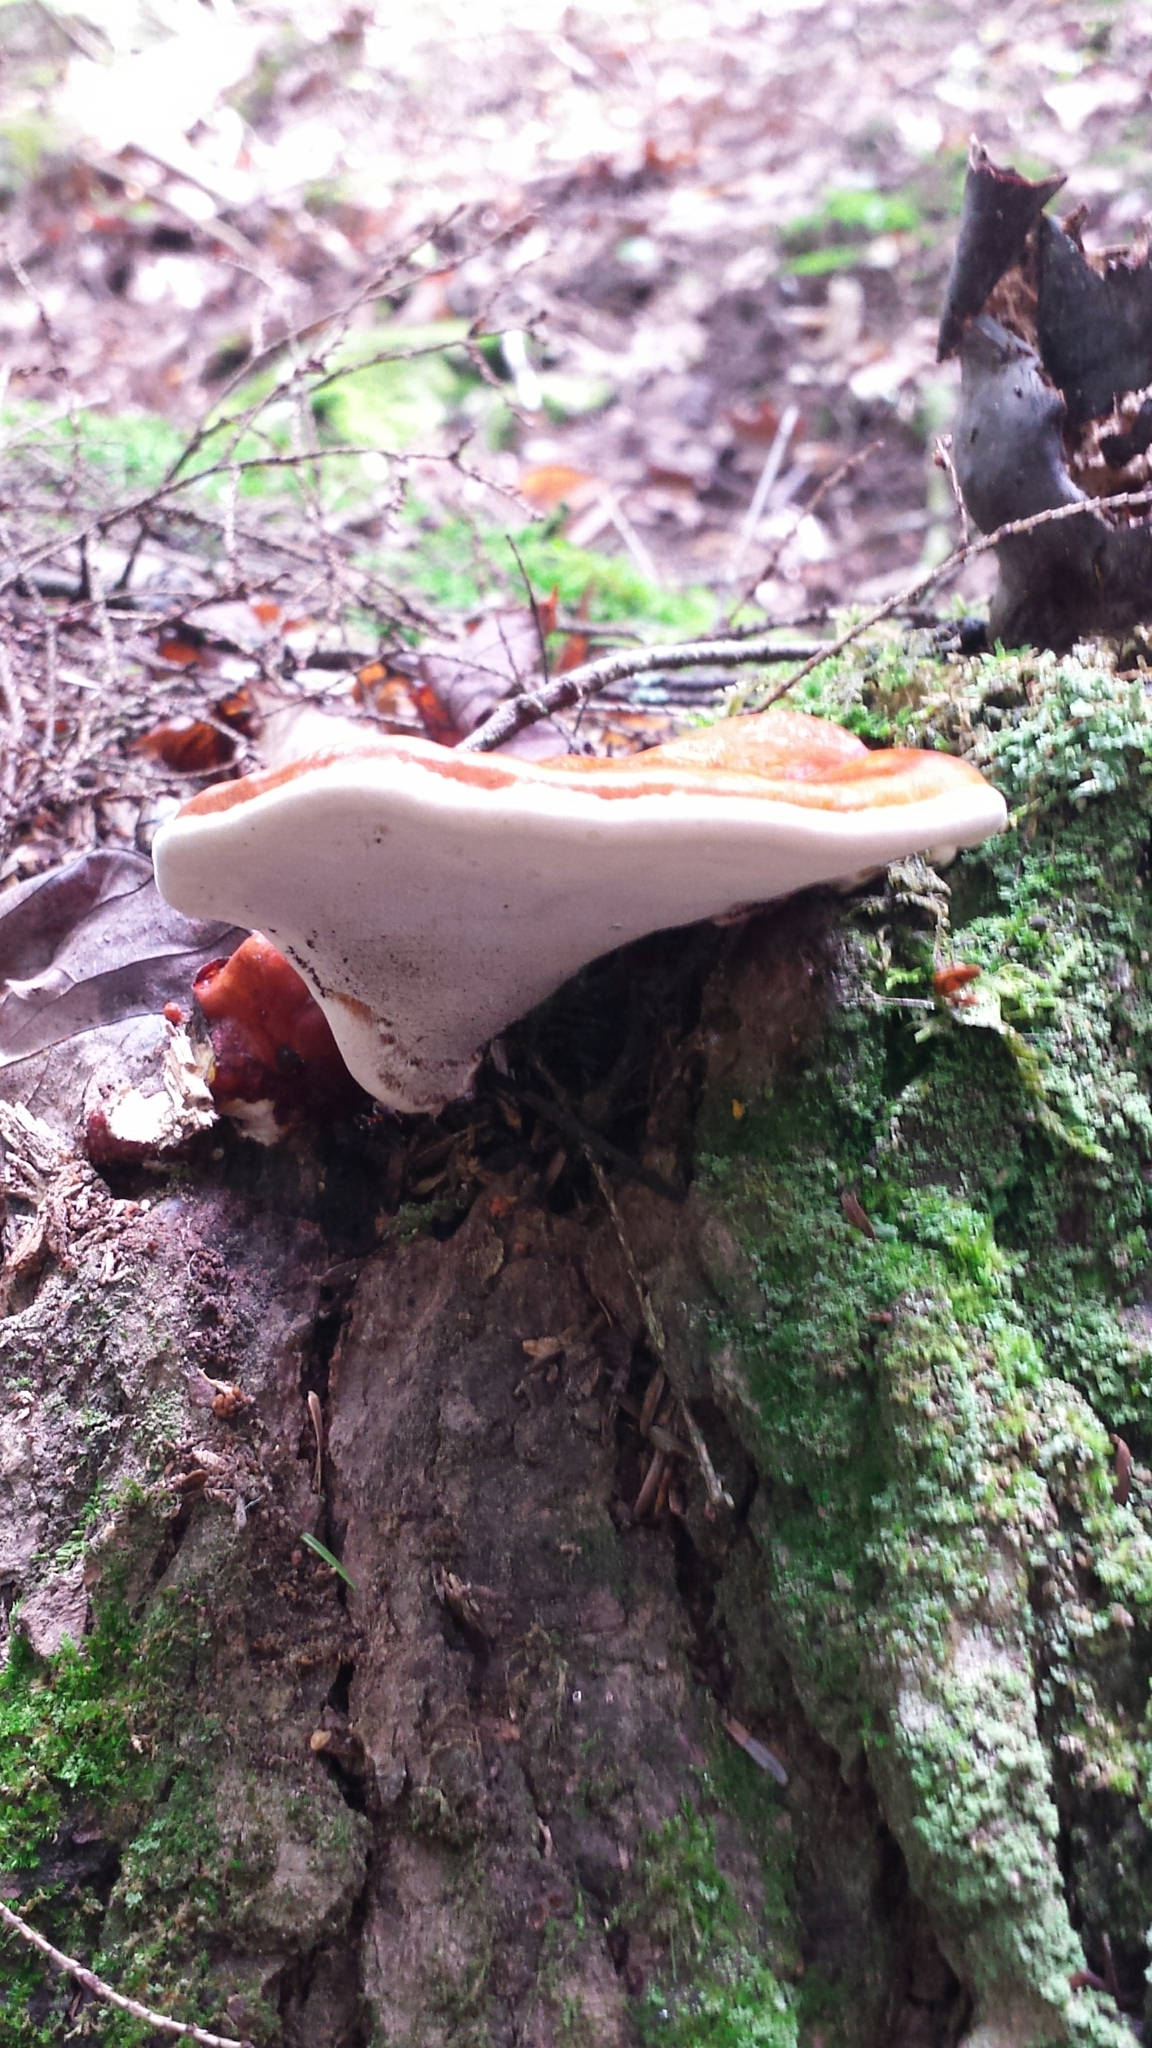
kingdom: Fungi
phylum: Basidiomycota
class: Agaricomycetes
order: Polyporales
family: Polyporaceae
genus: Ganoderma
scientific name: Ganoderma tsugae
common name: Hemlock varnish shelf
